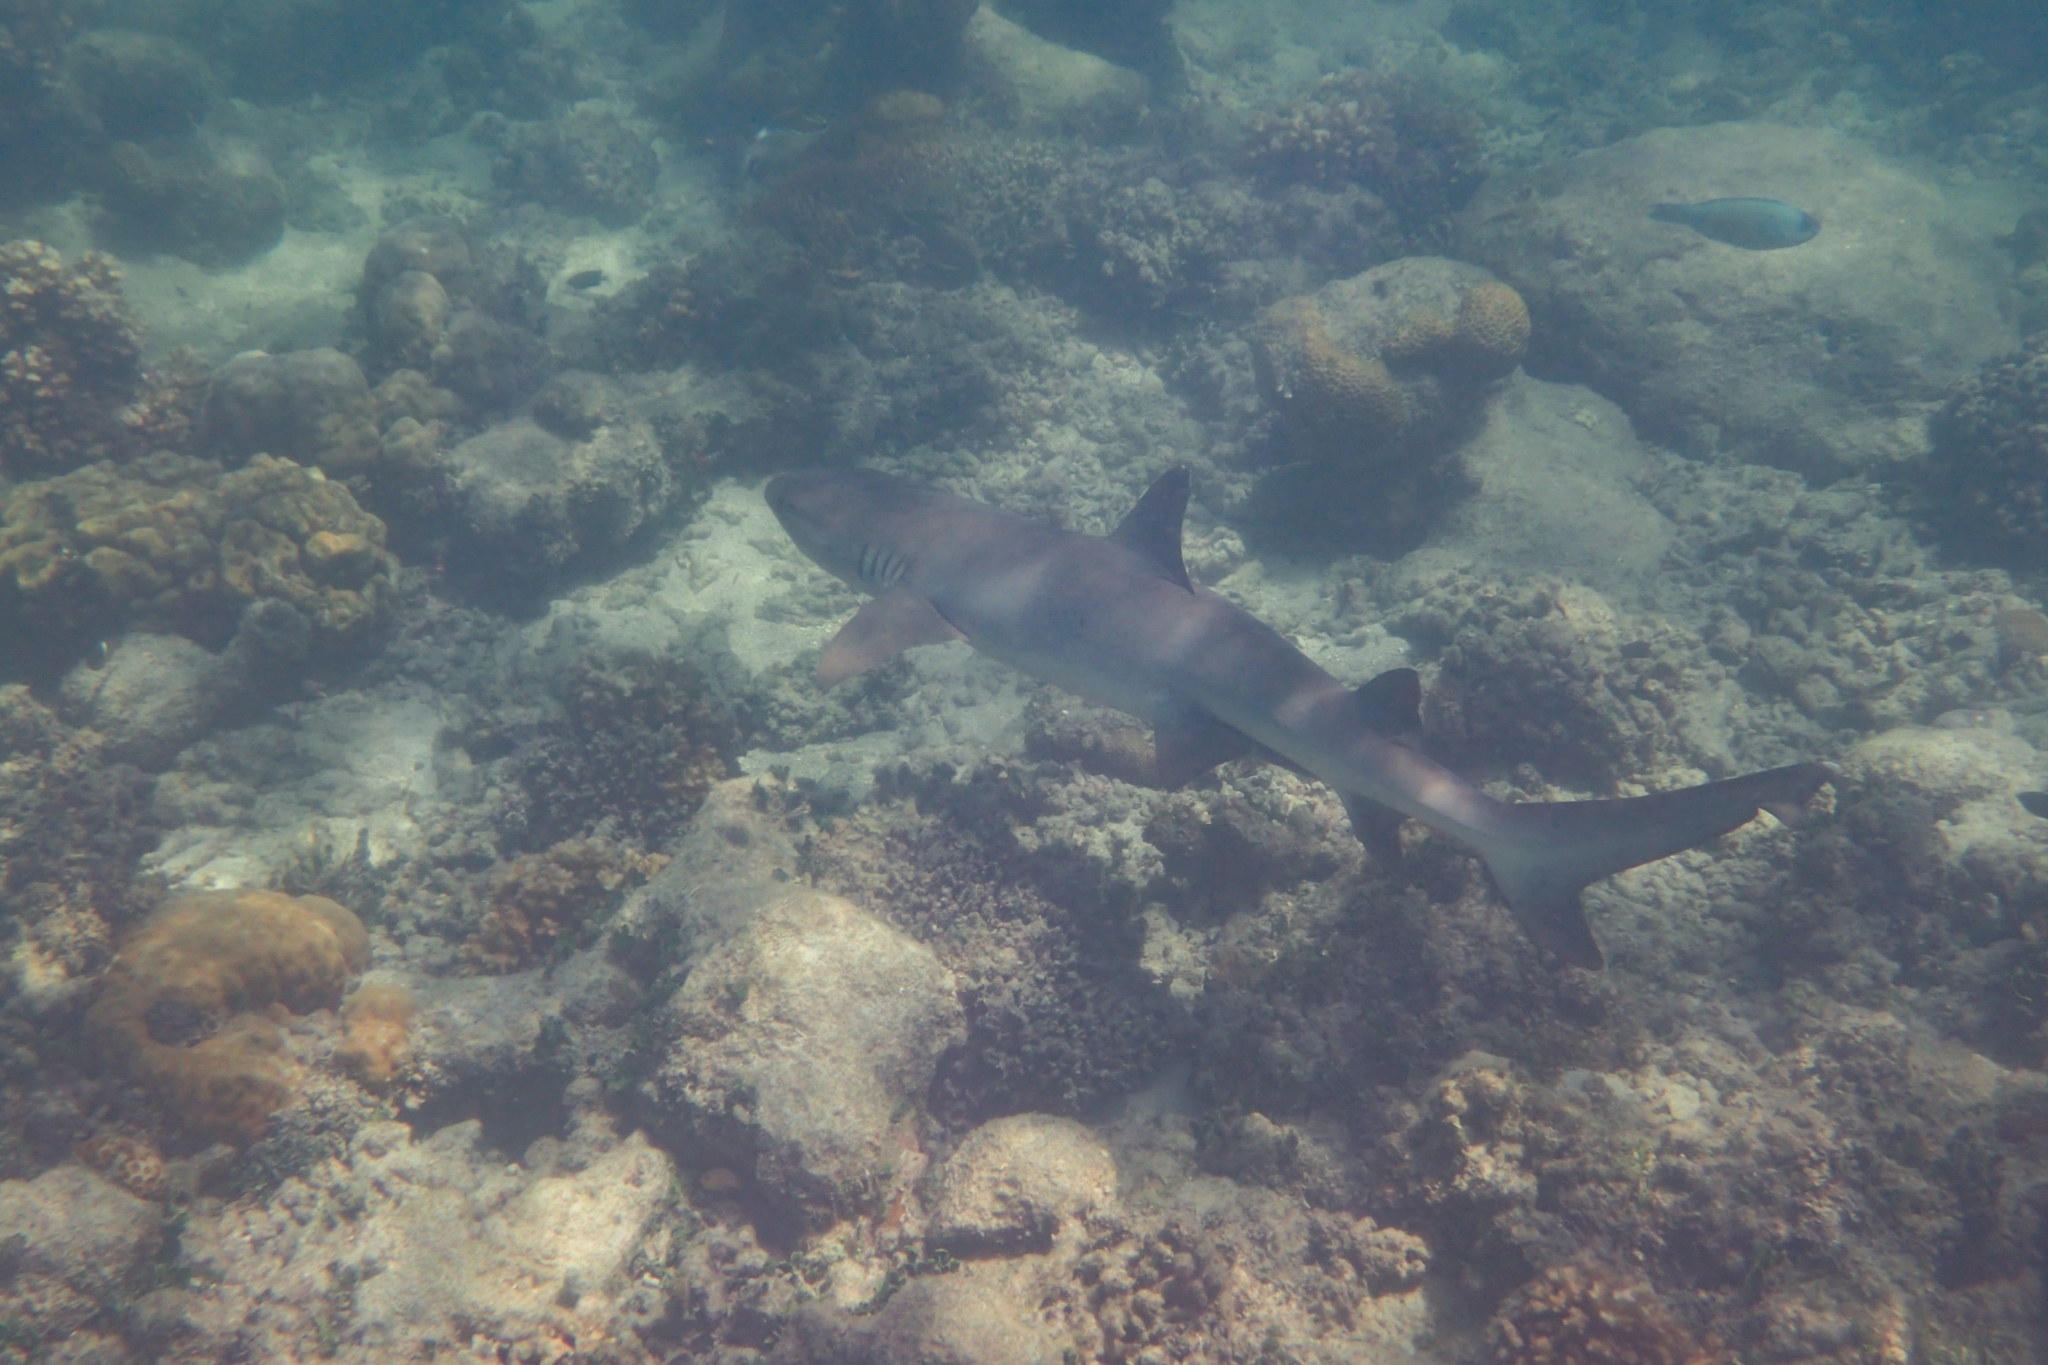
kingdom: Animalia
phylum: Chordata
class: Elasmobranchii
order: Carcharhiniformes
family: Carcharhinidae
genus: Triaenodon
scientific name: Triaenodon obesus
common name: Whitetip reef shark
